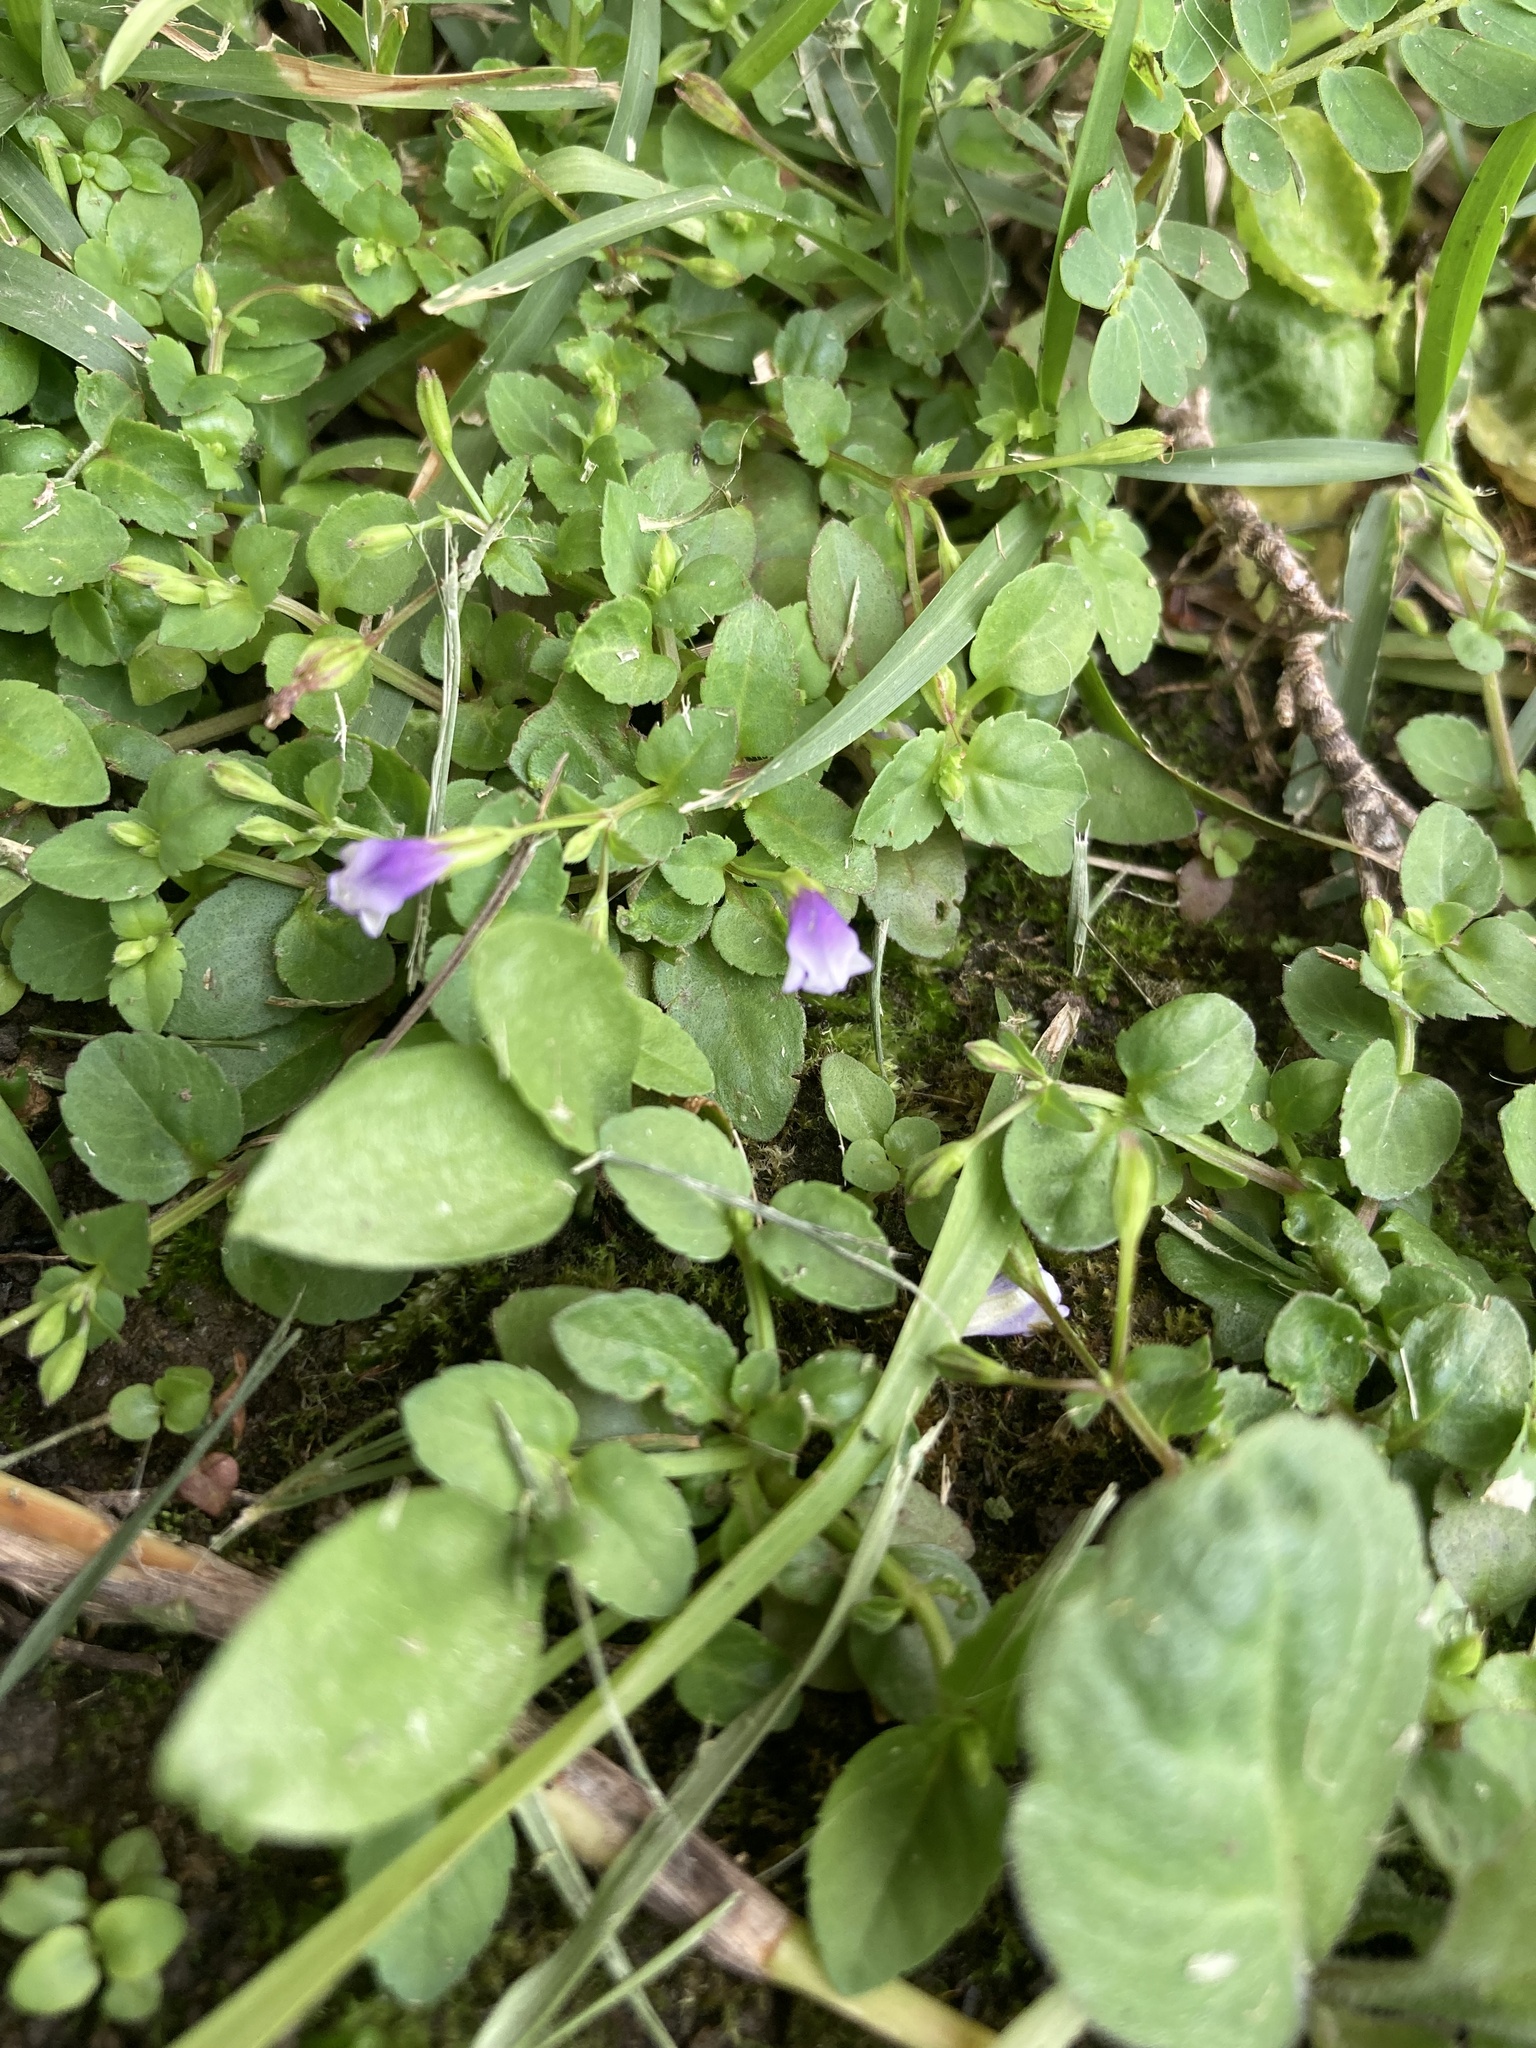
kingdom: Plantae
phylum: Tracheophyta
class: Magnoliopsida
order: Lamiales
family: Linderniaceae
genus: Torenia
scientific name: Torenia crustacea
